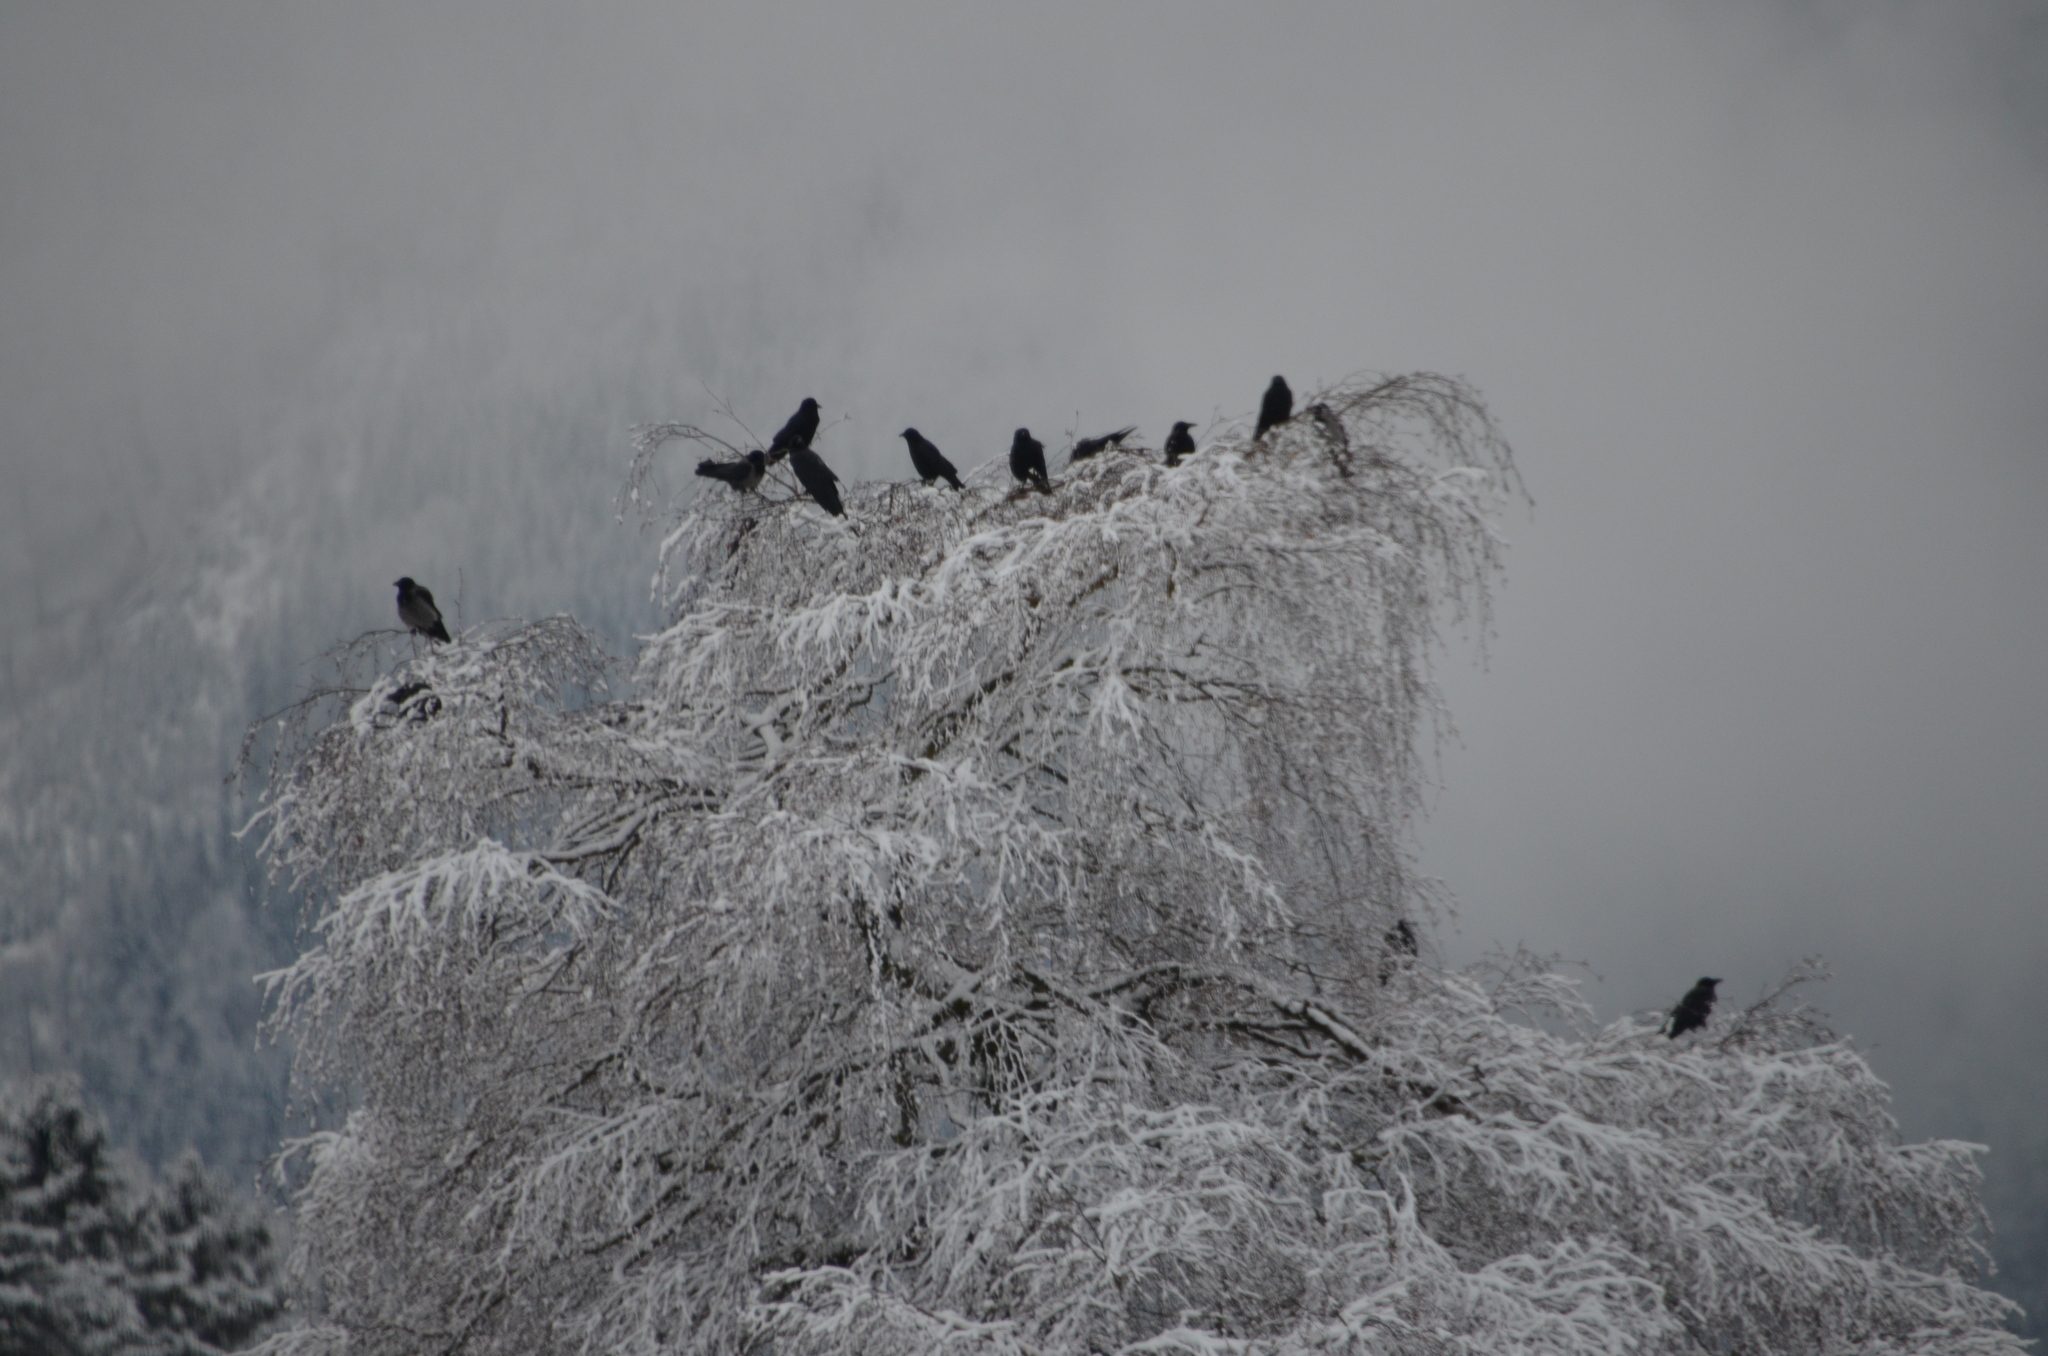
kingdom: Animalia
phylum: Chordata
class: Aves
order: Passeriformes
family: Corvidae
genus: Corvus
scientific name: Corvus corone
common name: Carrion crow
